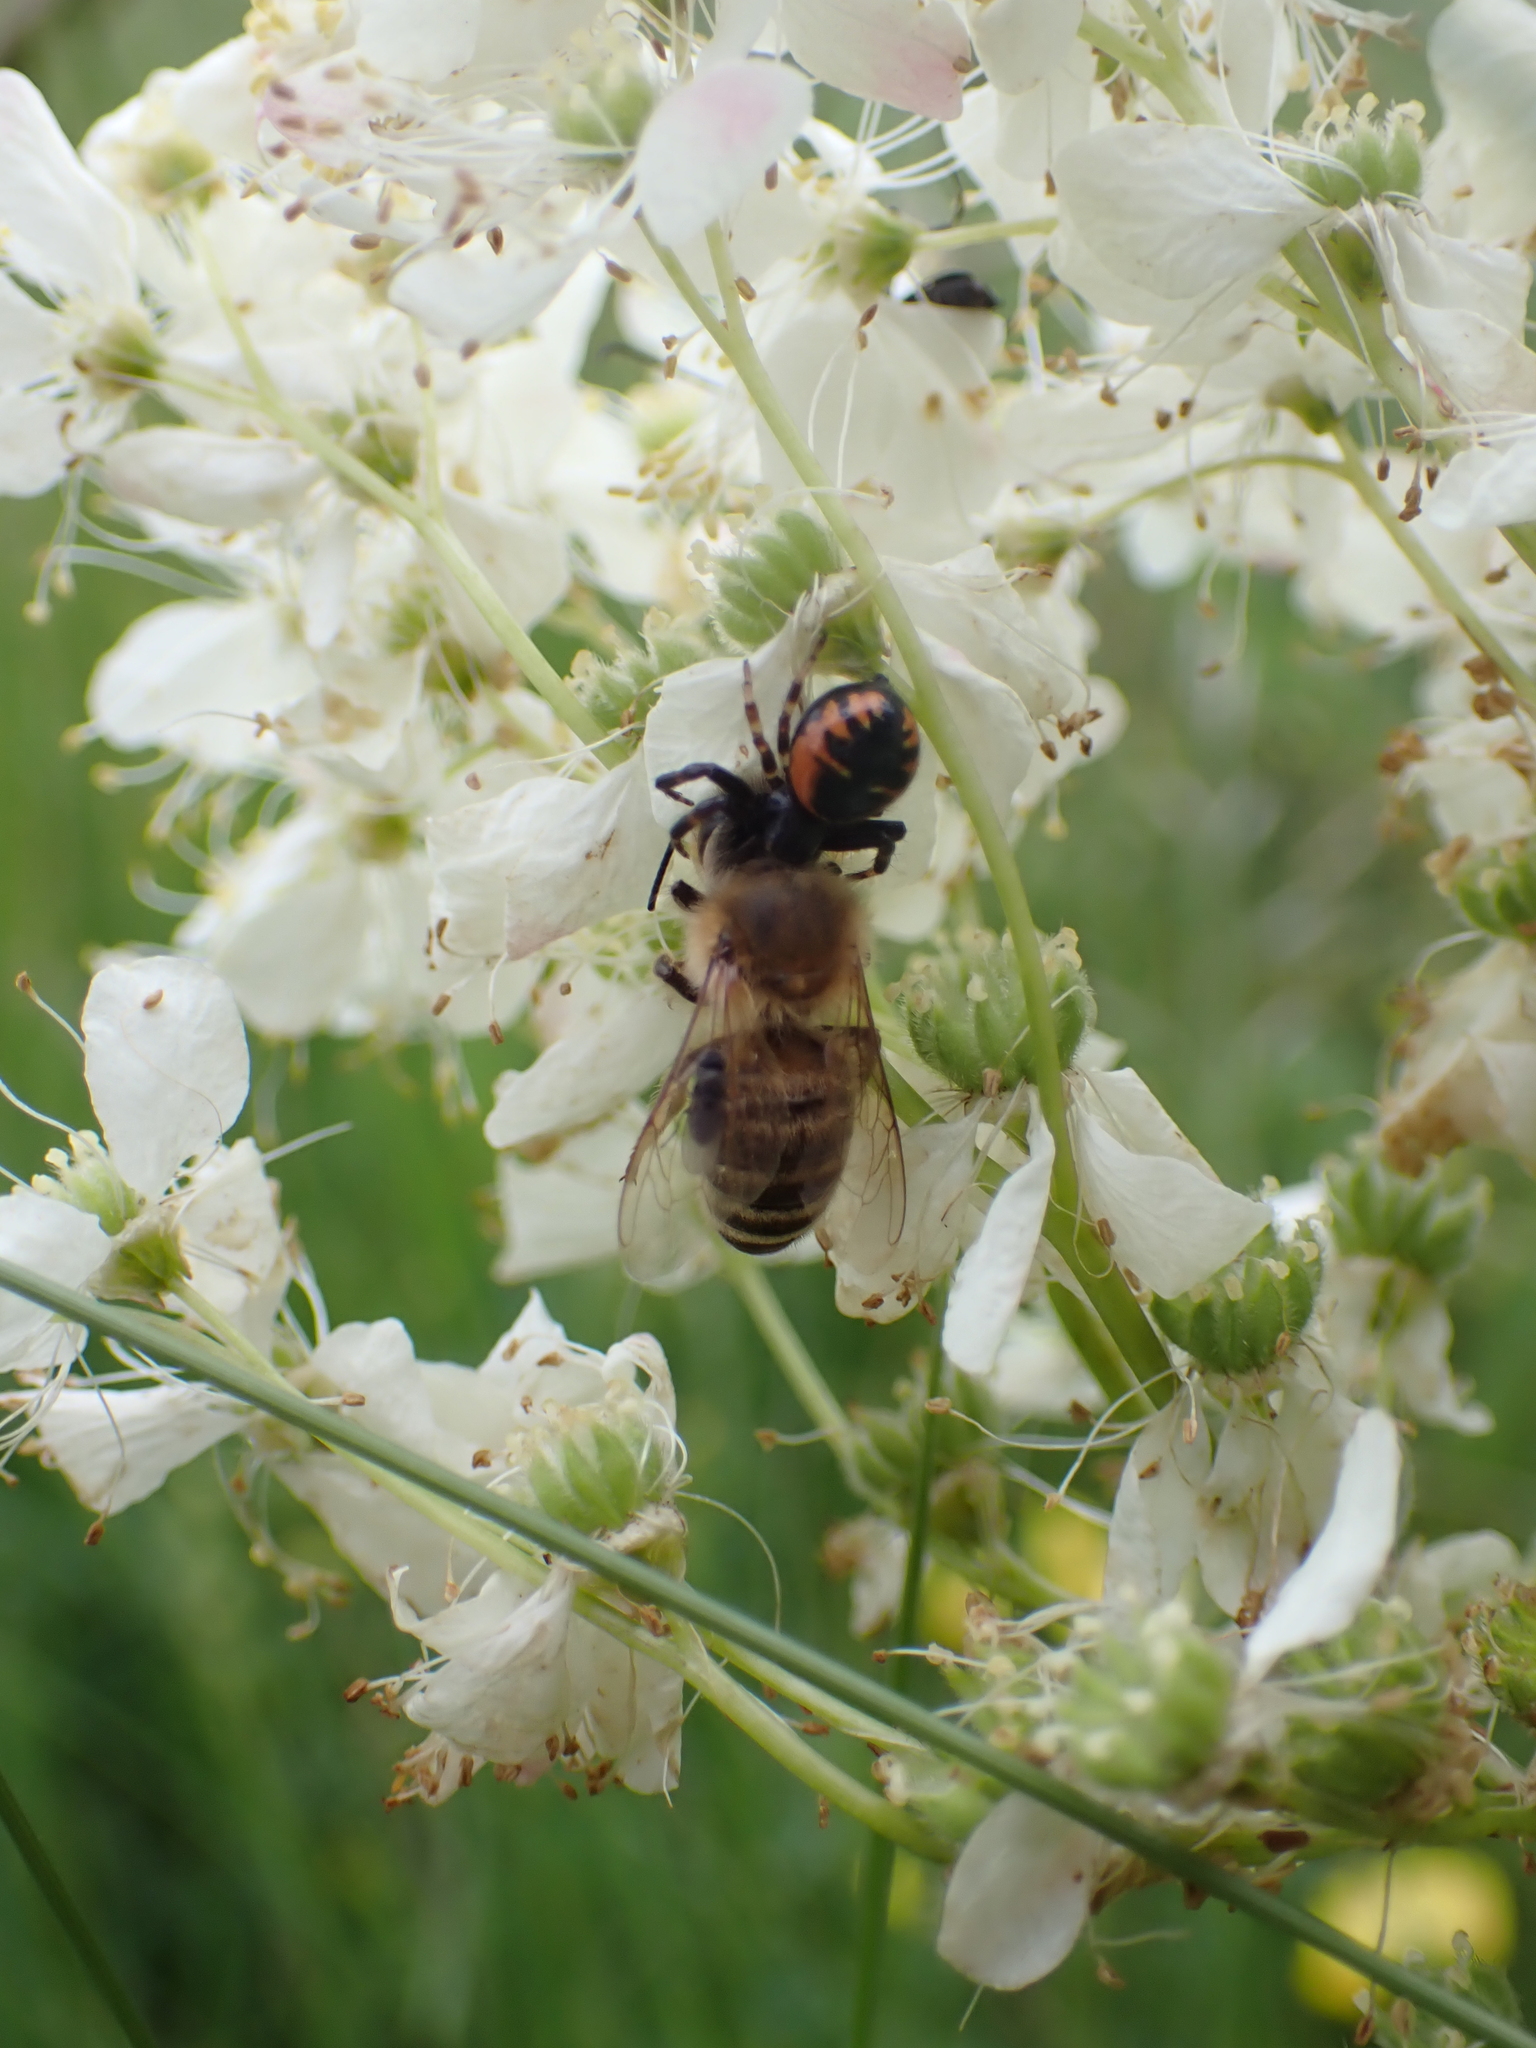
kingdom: Animalia
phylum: Arthropoda
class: Arachnida
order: Araneae
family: Thomisidae
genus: Synema
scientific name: Synema globosum
